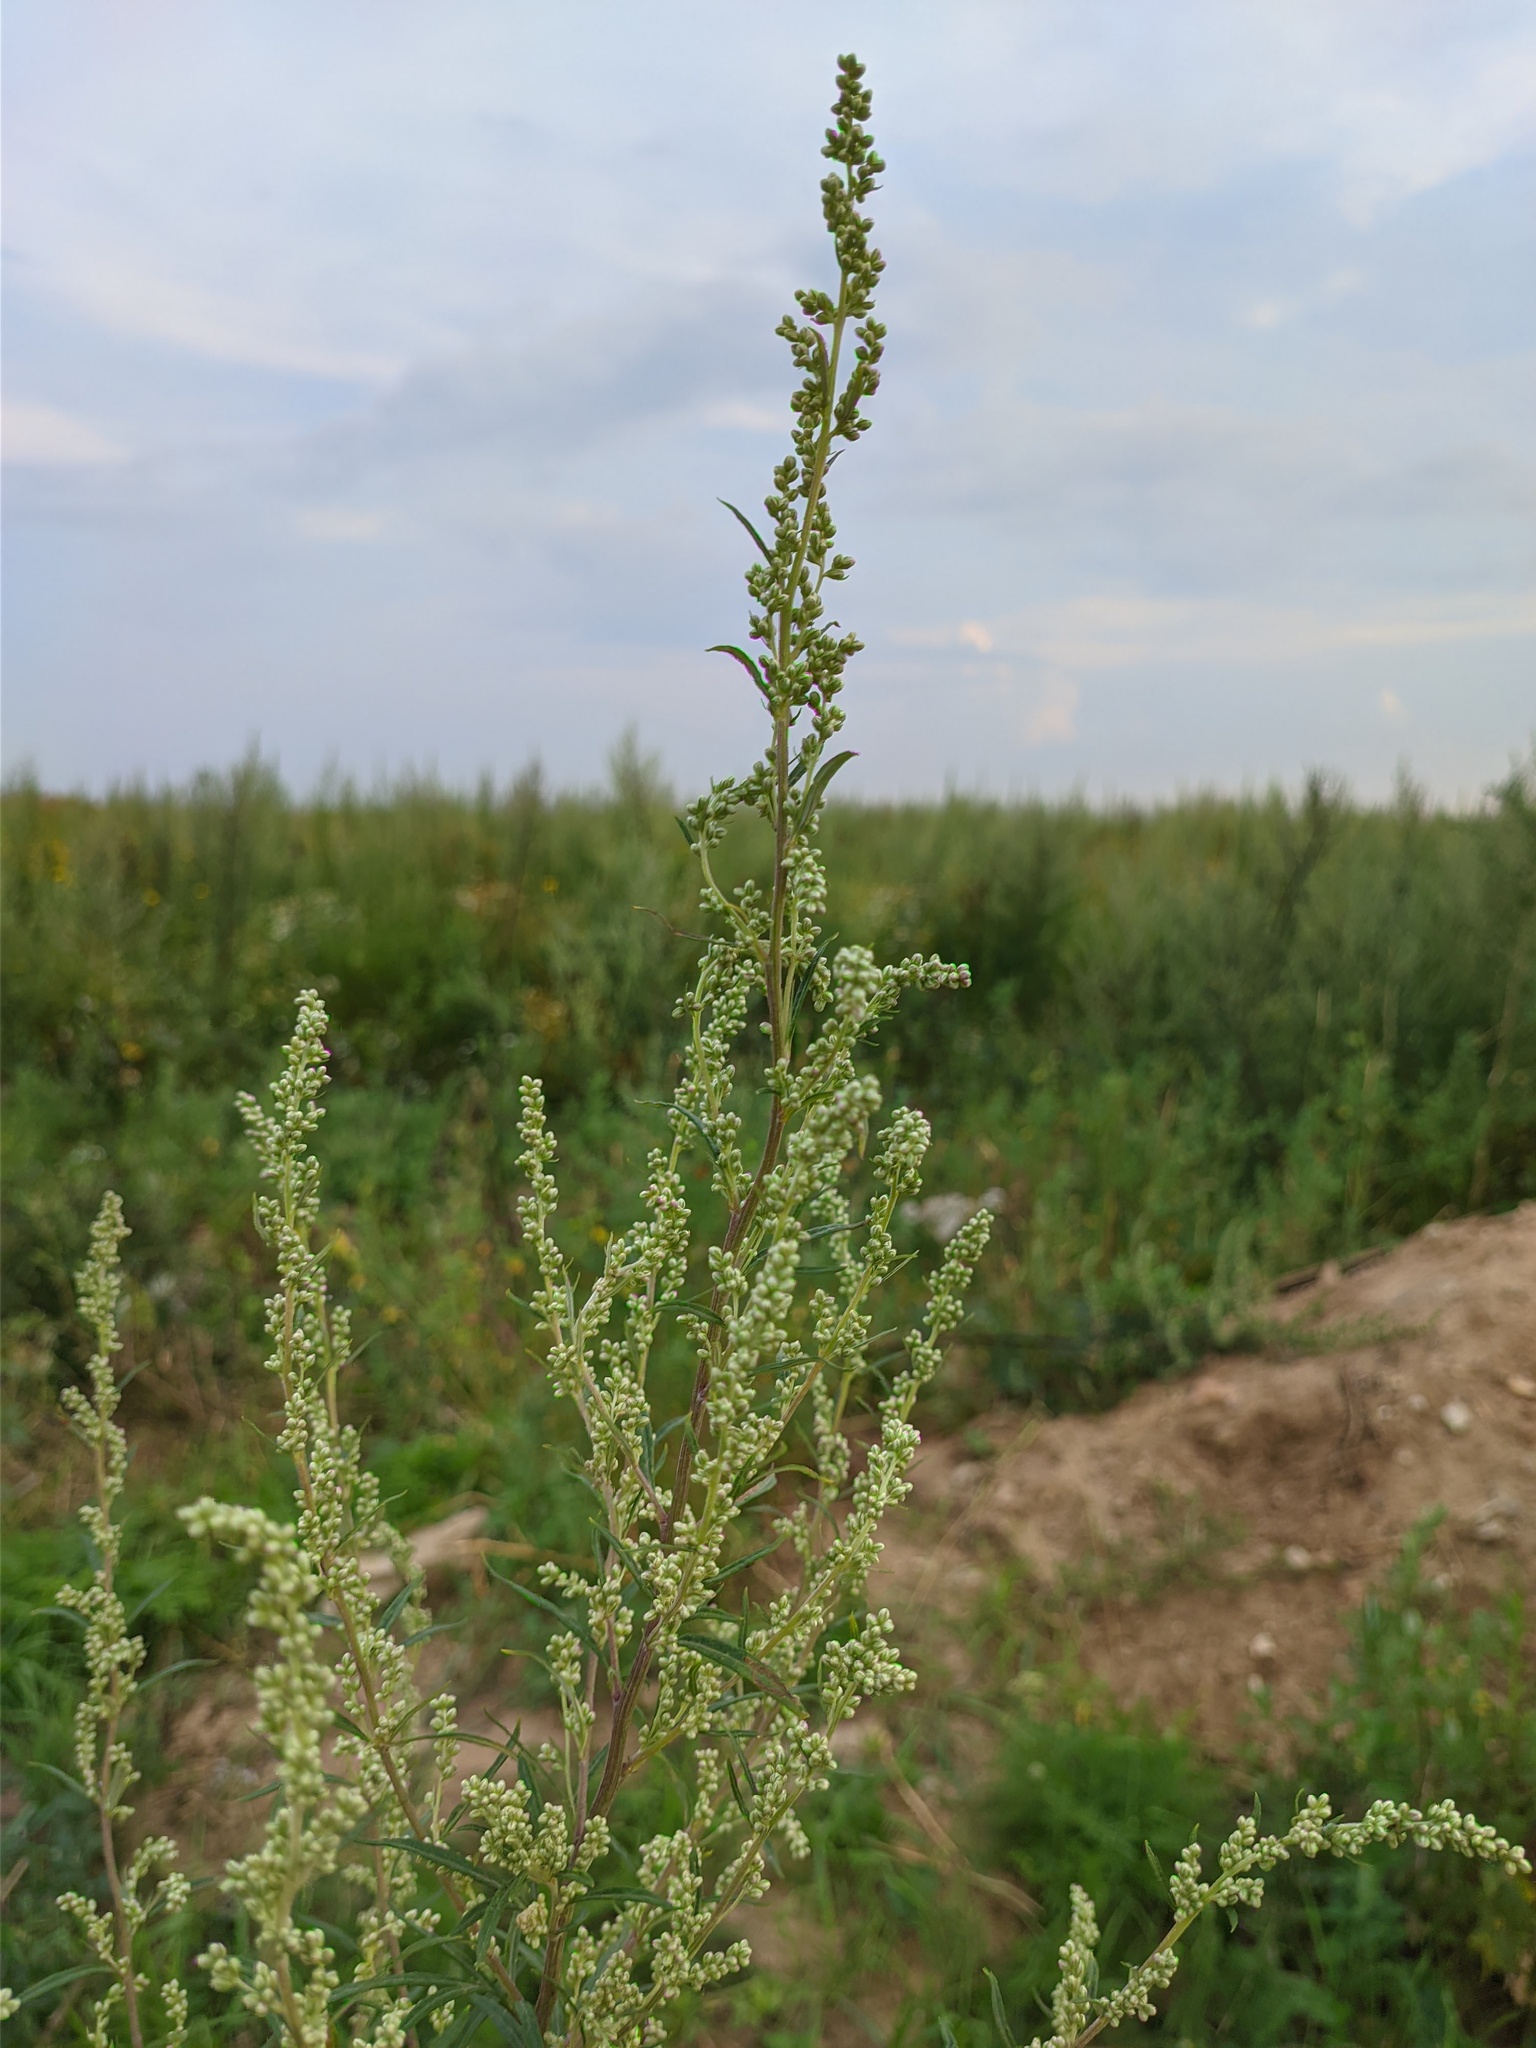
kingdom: Plantae
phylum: Tracheophyta
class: Magnoliopsida
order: Asterales
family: Asteraceae
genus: Artemisia
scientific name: Artemisia vulgaris
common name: Mugwort
